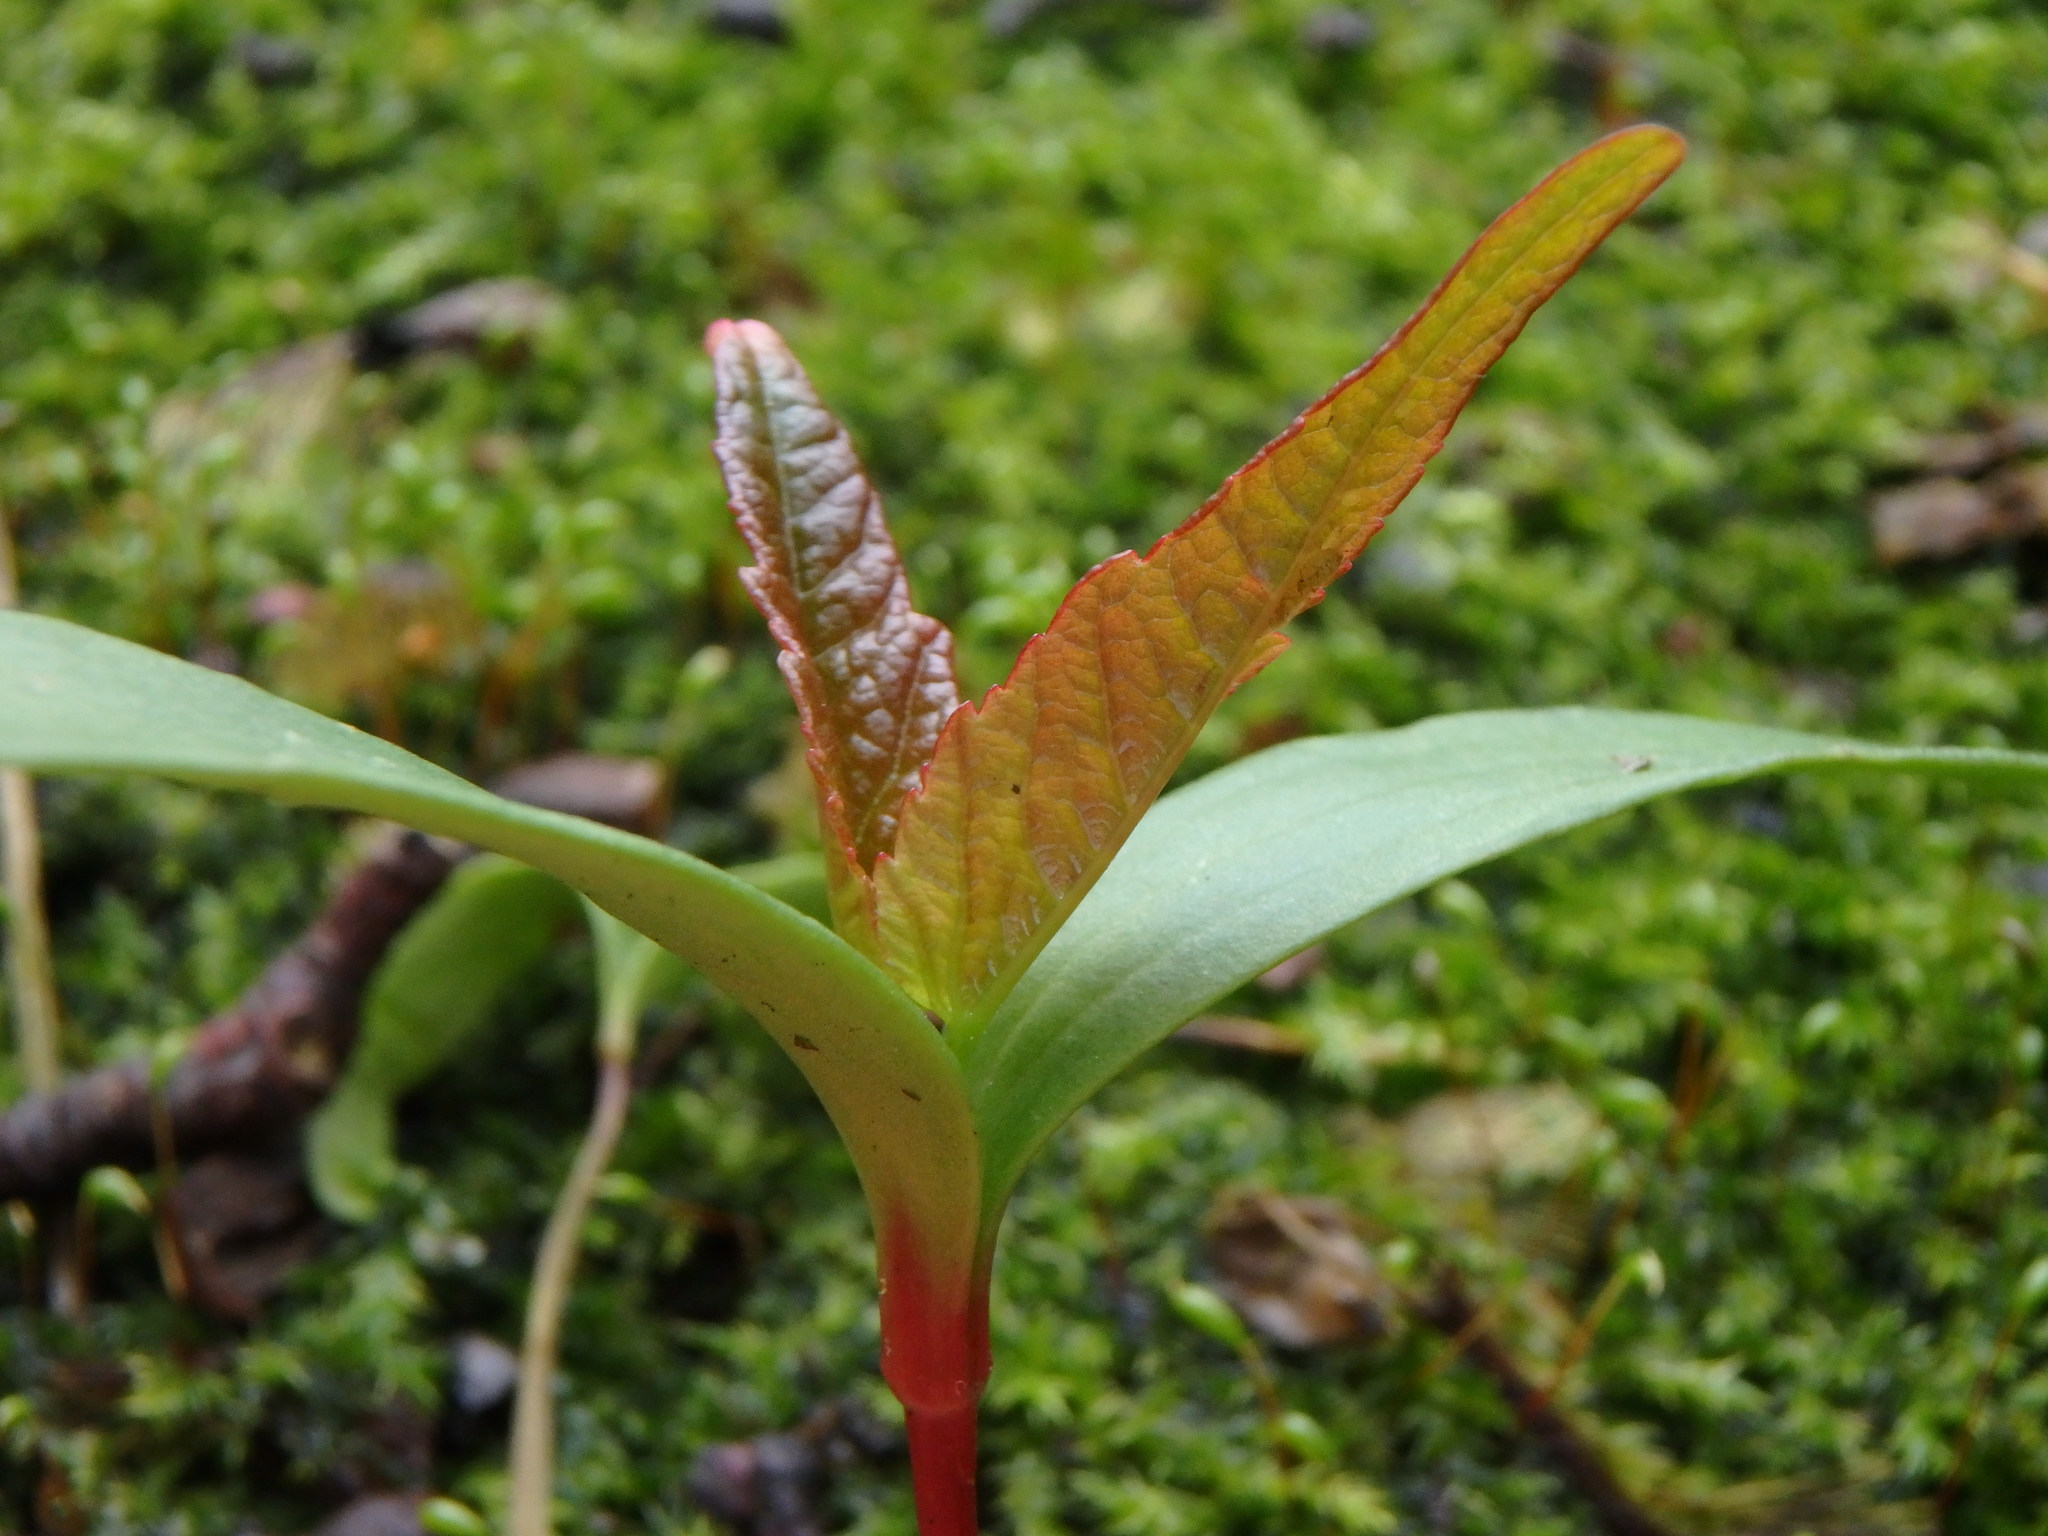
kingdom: Plantae
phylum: Tracheophyta
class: Magnoliopsida
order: Sapindales
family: Sapindaceae
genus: Acer
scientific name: Acer pseudoplatanus
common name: Sycamore
